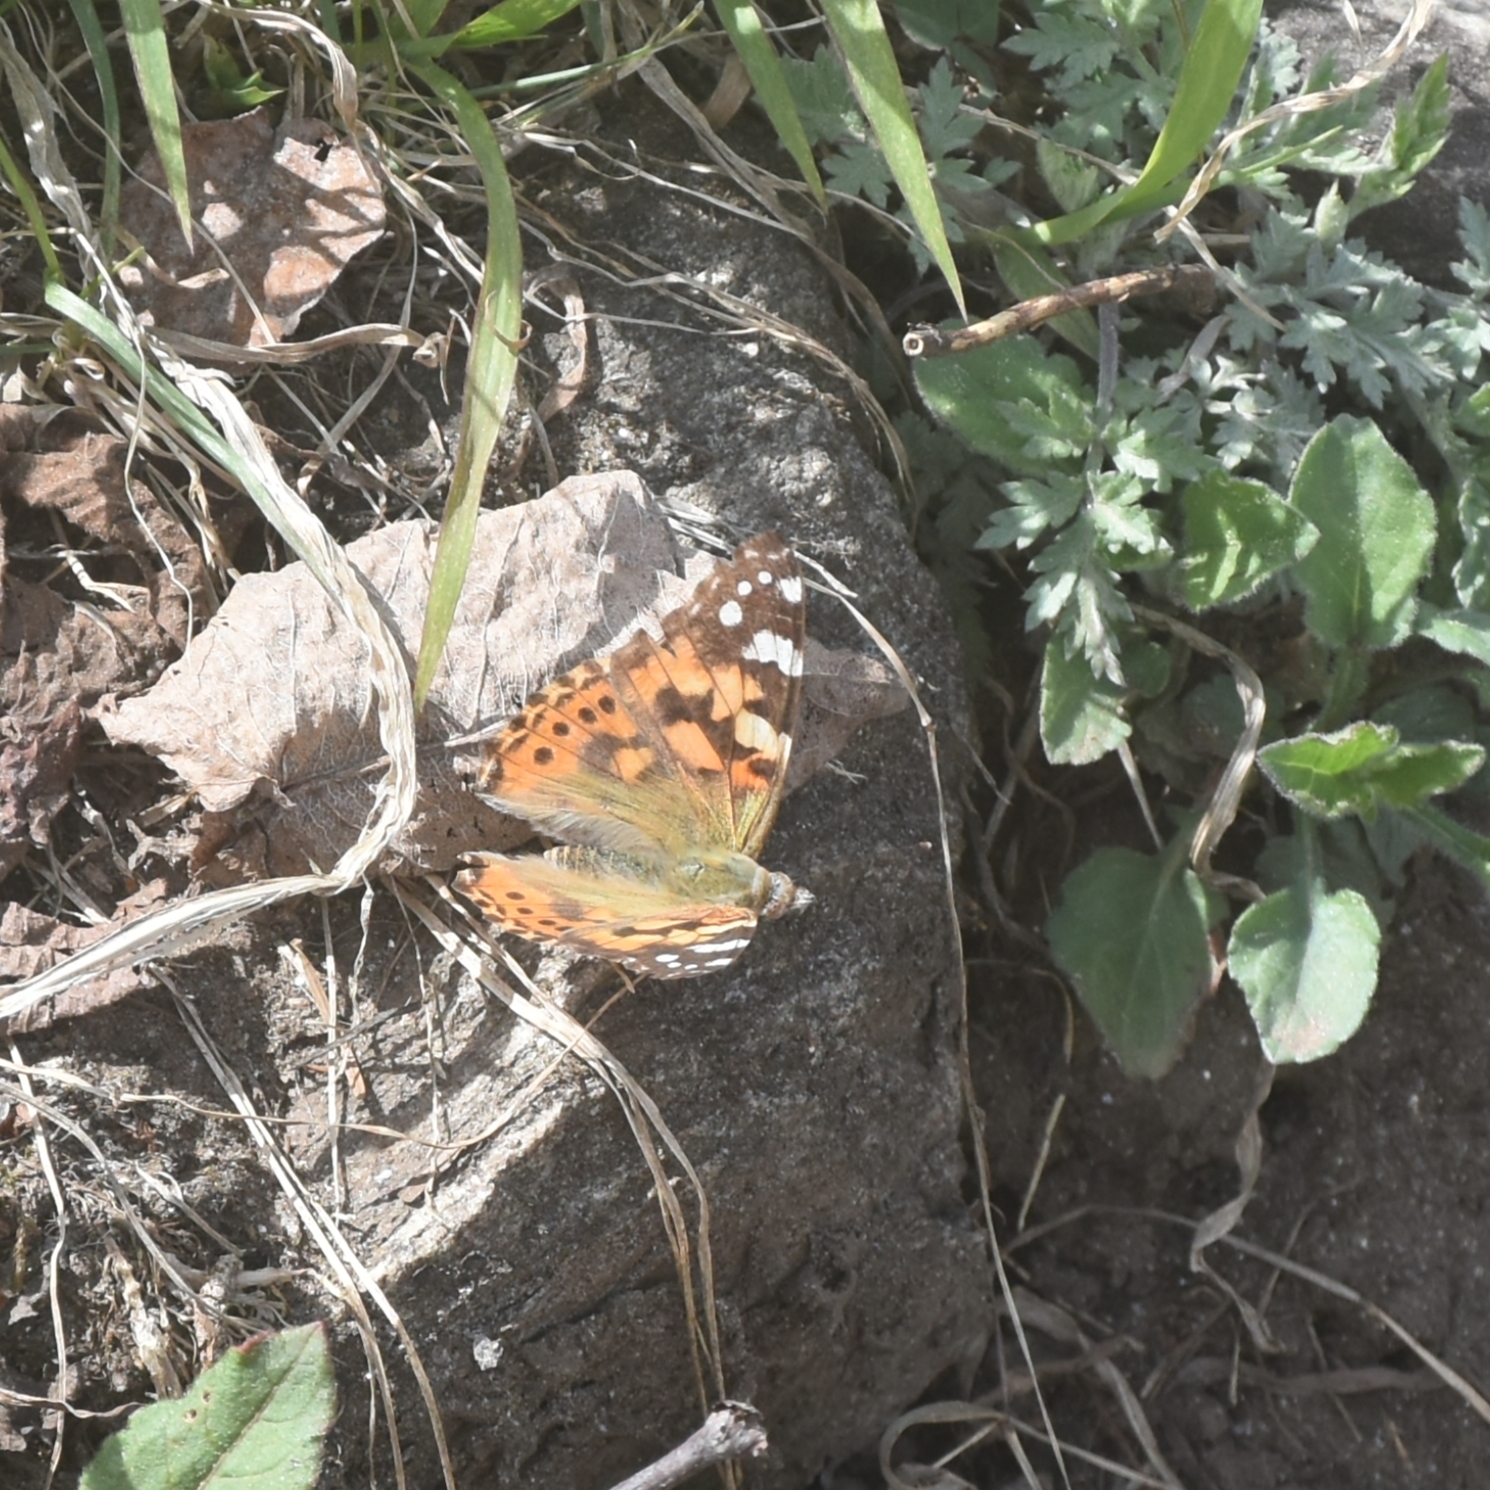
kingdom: Animalia
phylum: Arthropoda
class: Insecta
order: Lepidoptera
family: Nymphalidae
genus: Vanessa
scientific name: Vanessa cardui
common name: Painted lady
